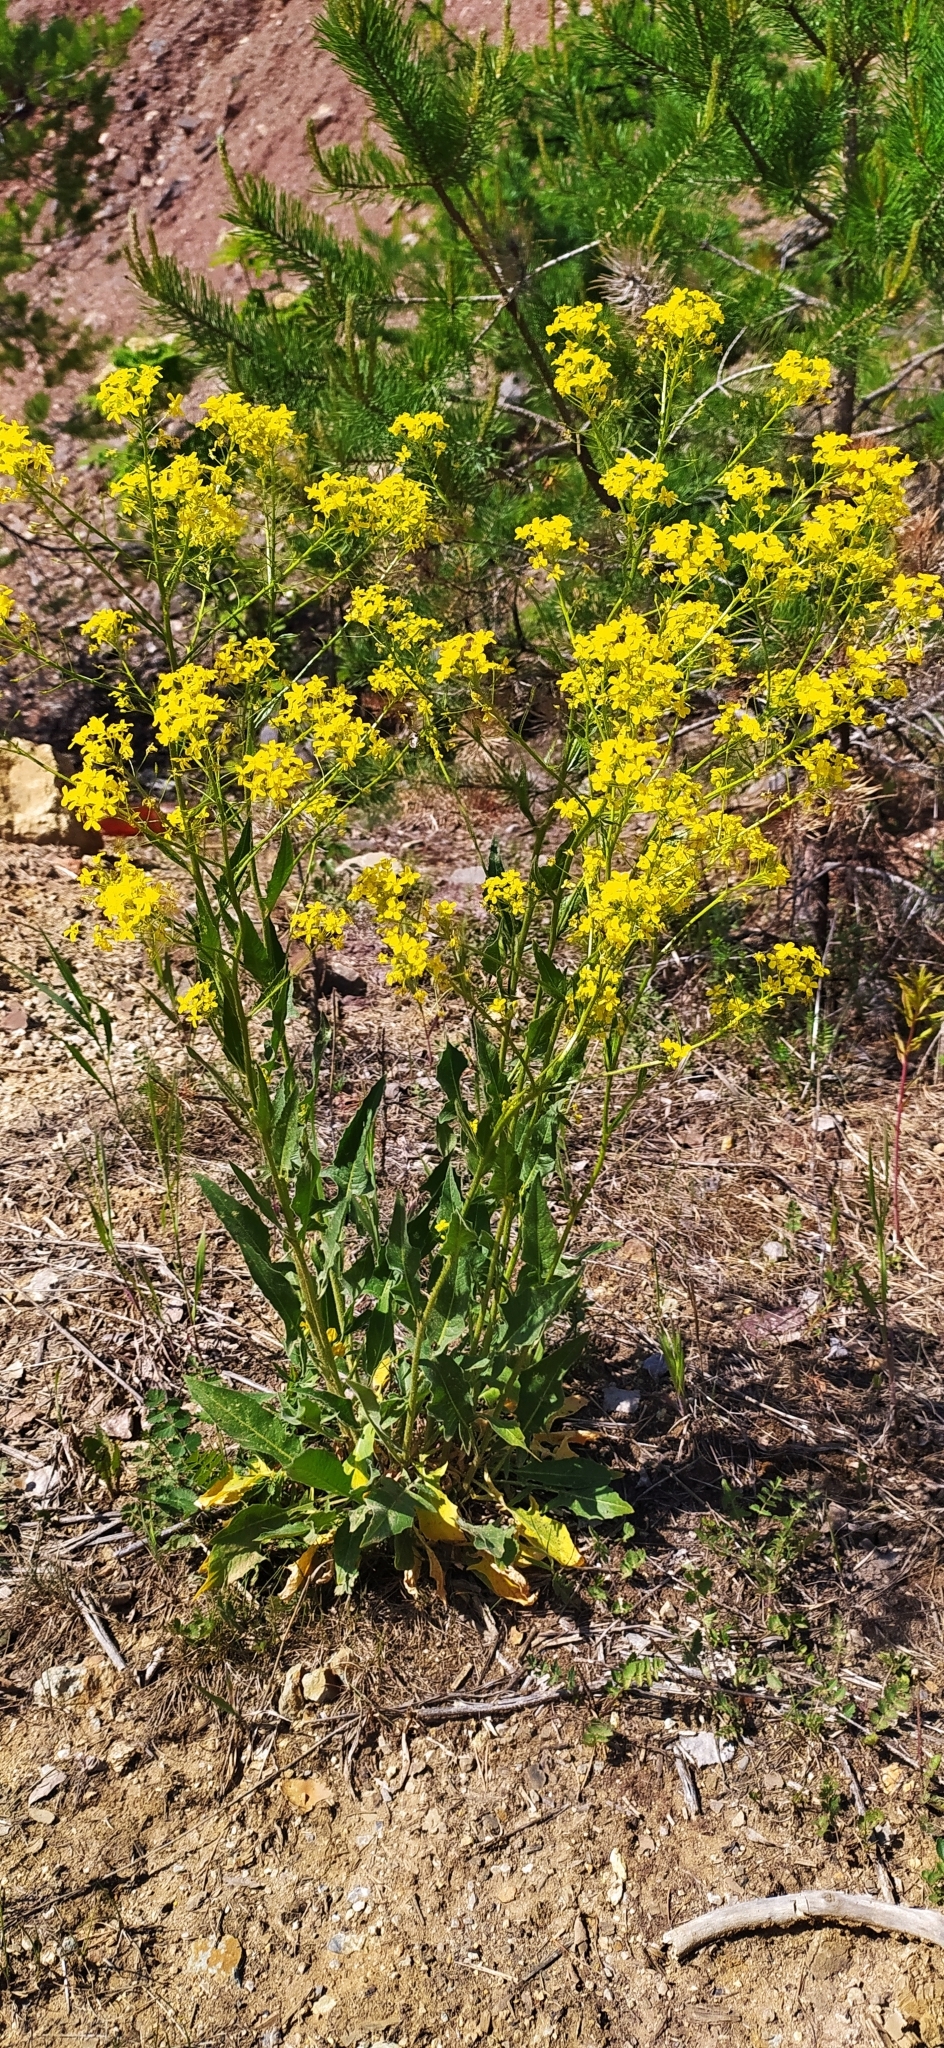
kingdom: Plantae
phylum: Tracheophyta
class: Magnoliopsida
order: Brassicales
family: Brassicaceae
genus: Bunias
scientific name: Bunias orientalis
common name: Warty-cabbage
